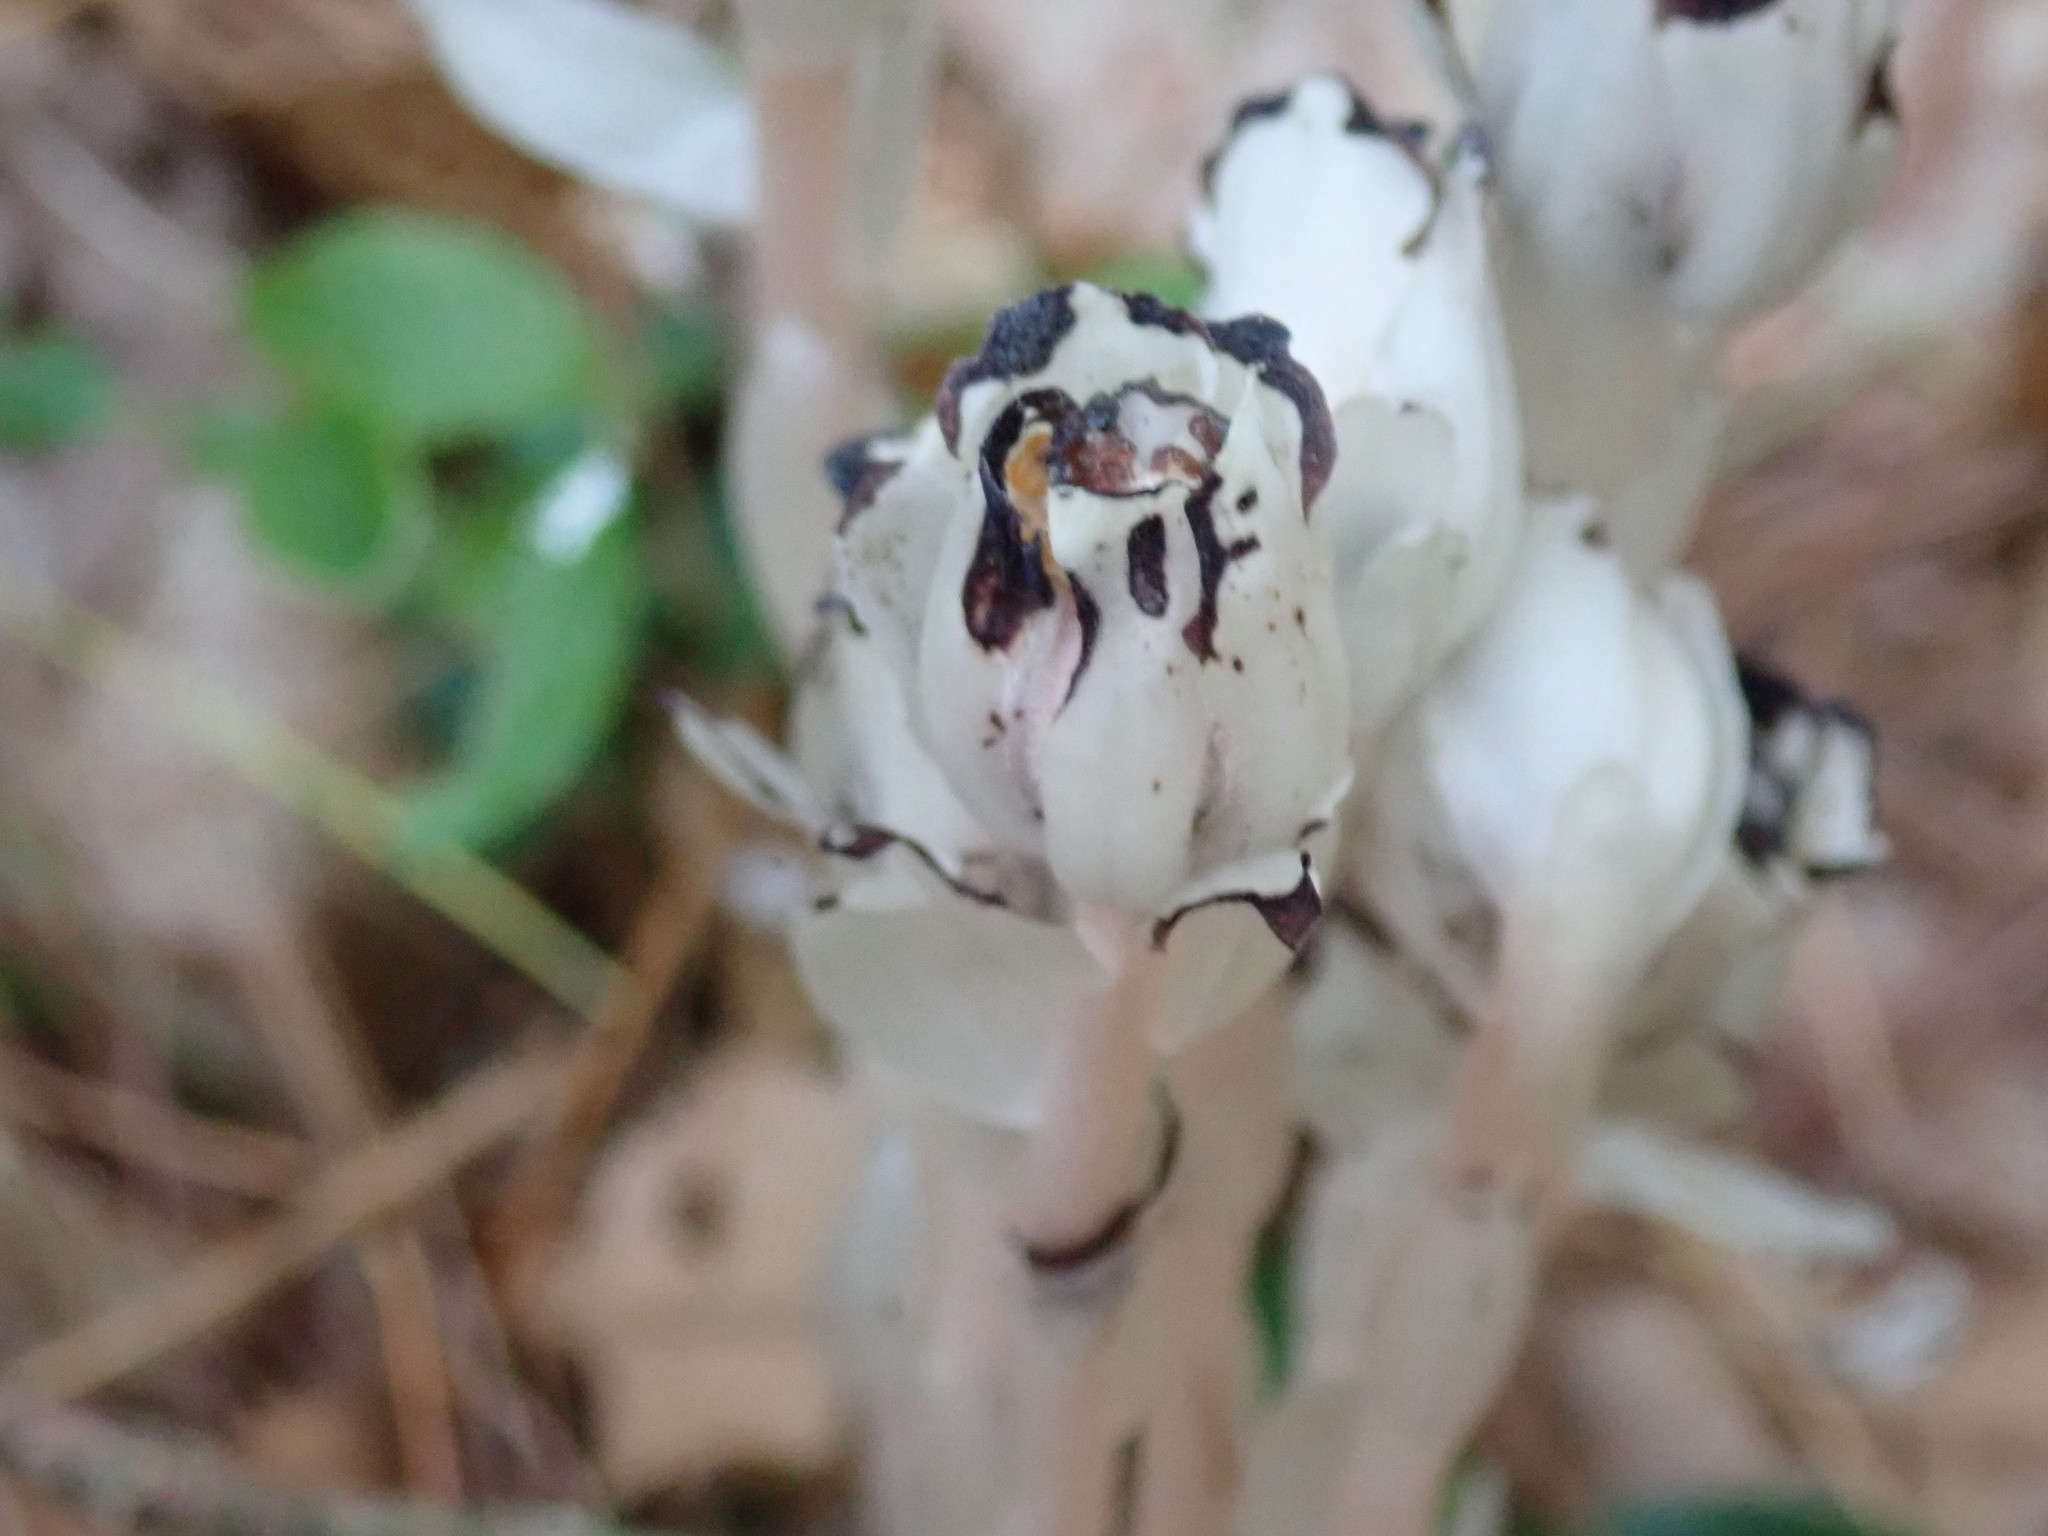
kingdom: Plantae
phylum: Tracheophyta
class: Magnoliopsida
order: Ericales
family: Ericaceae
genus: Monotropa
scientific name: Monotropa uniflora
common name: Convulsion root
